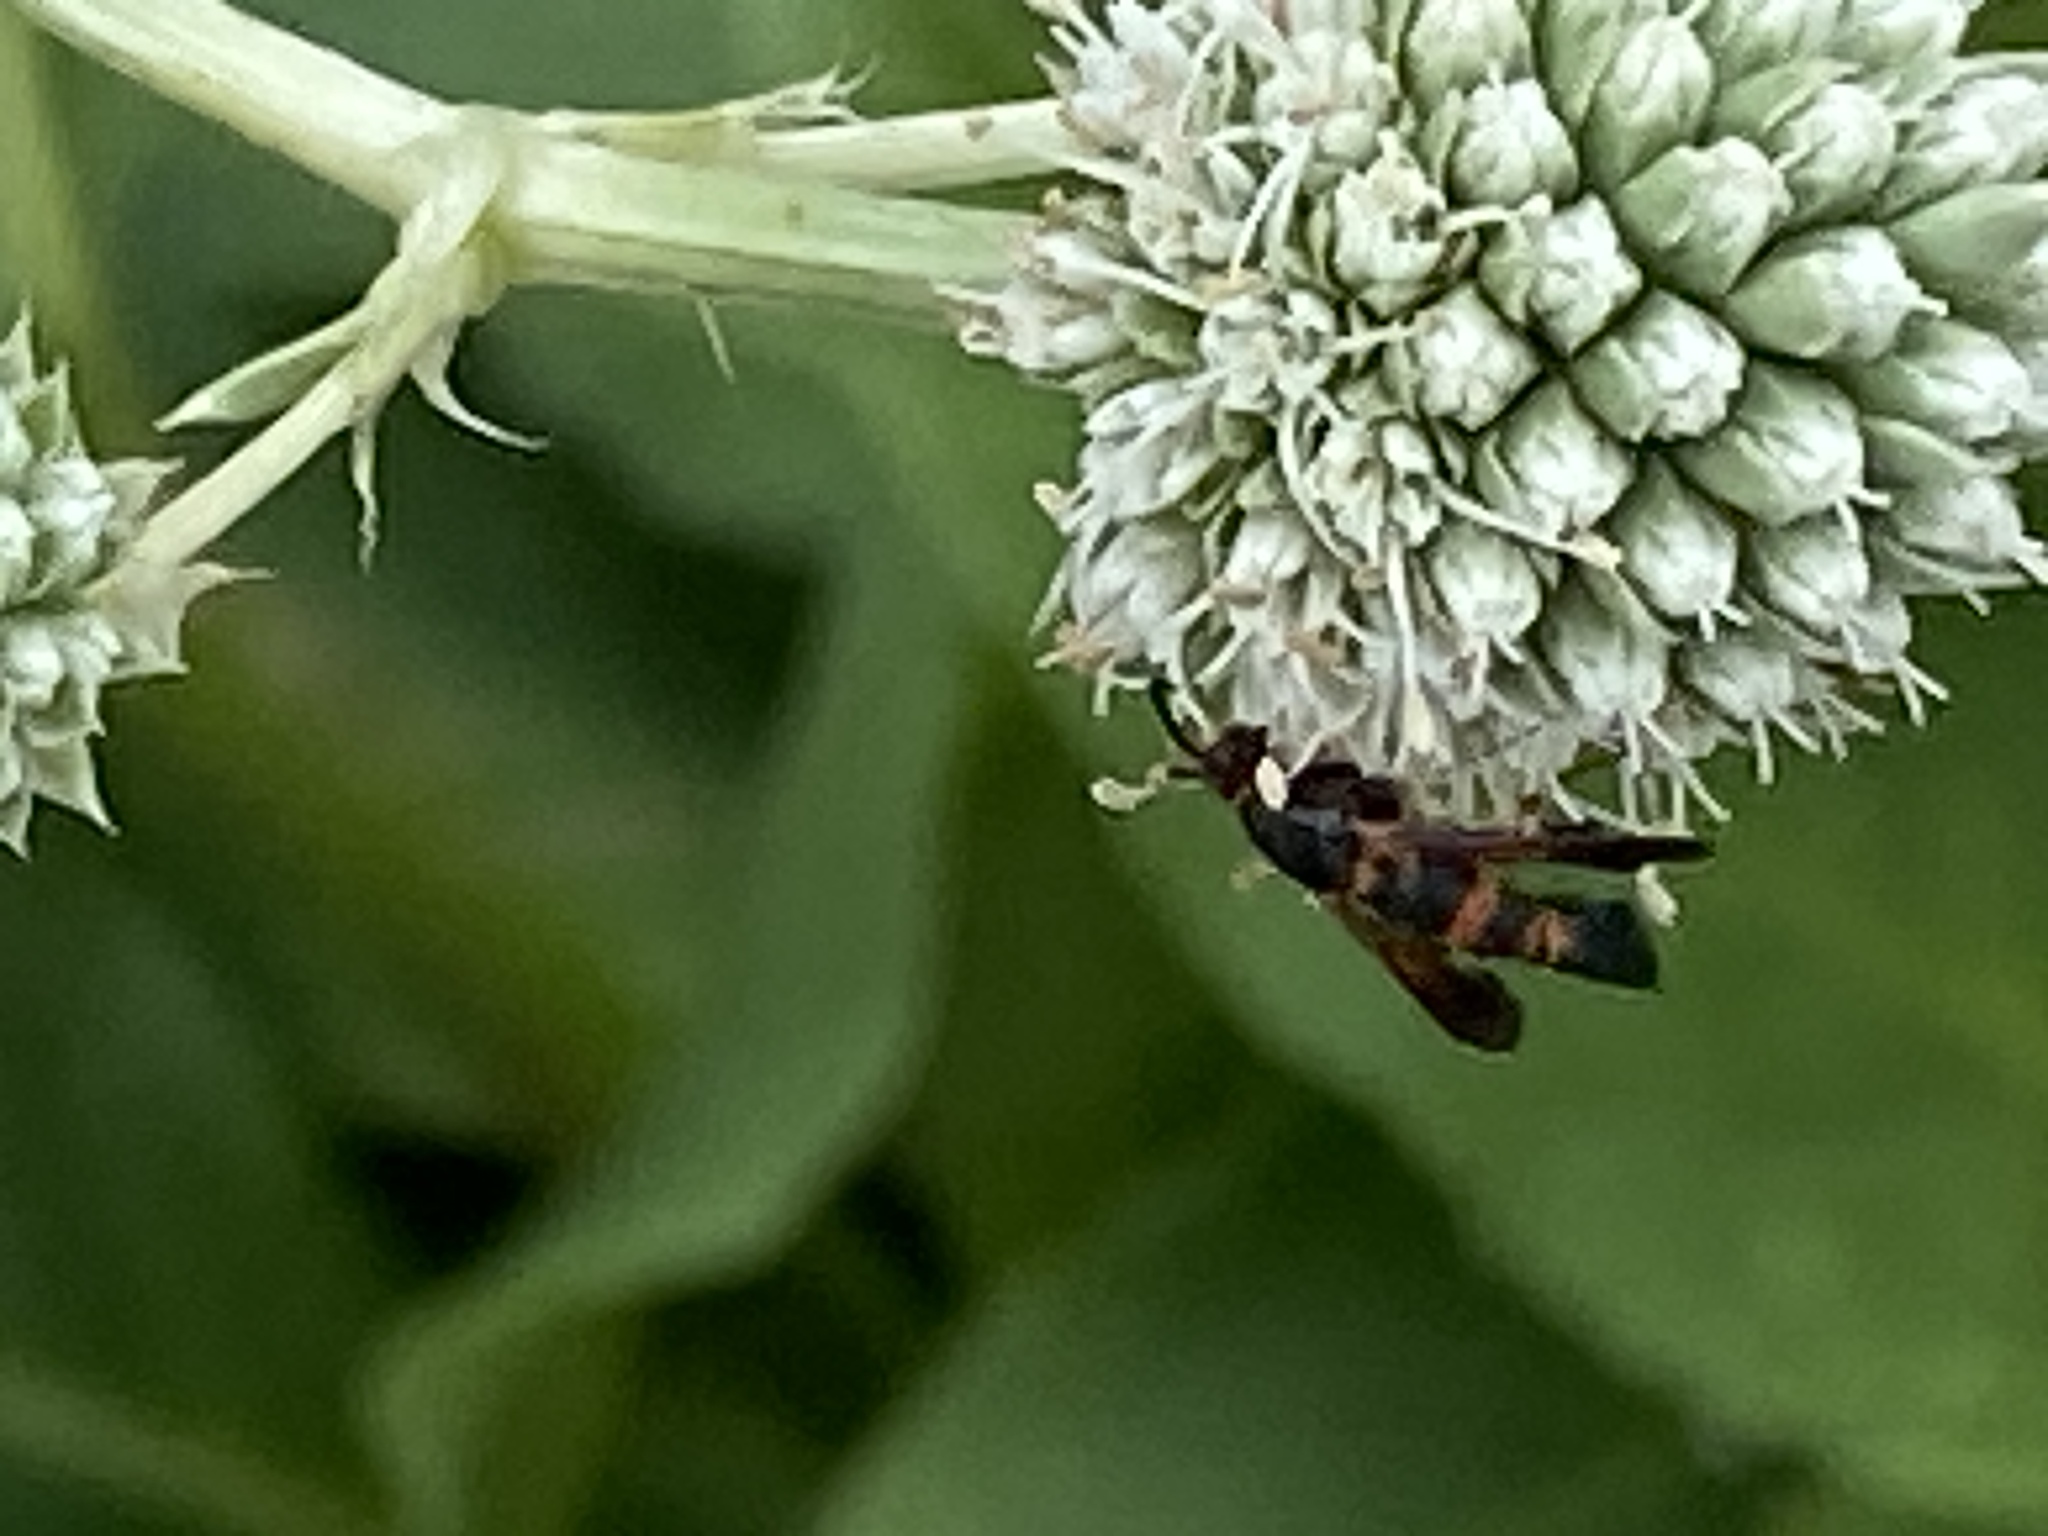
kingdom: Animalia
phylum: Arthropoda
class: Insecta
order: Lepidoptera
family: Sesiidae
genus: Synanthedon
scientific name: Synanthedon sapygaeformis
